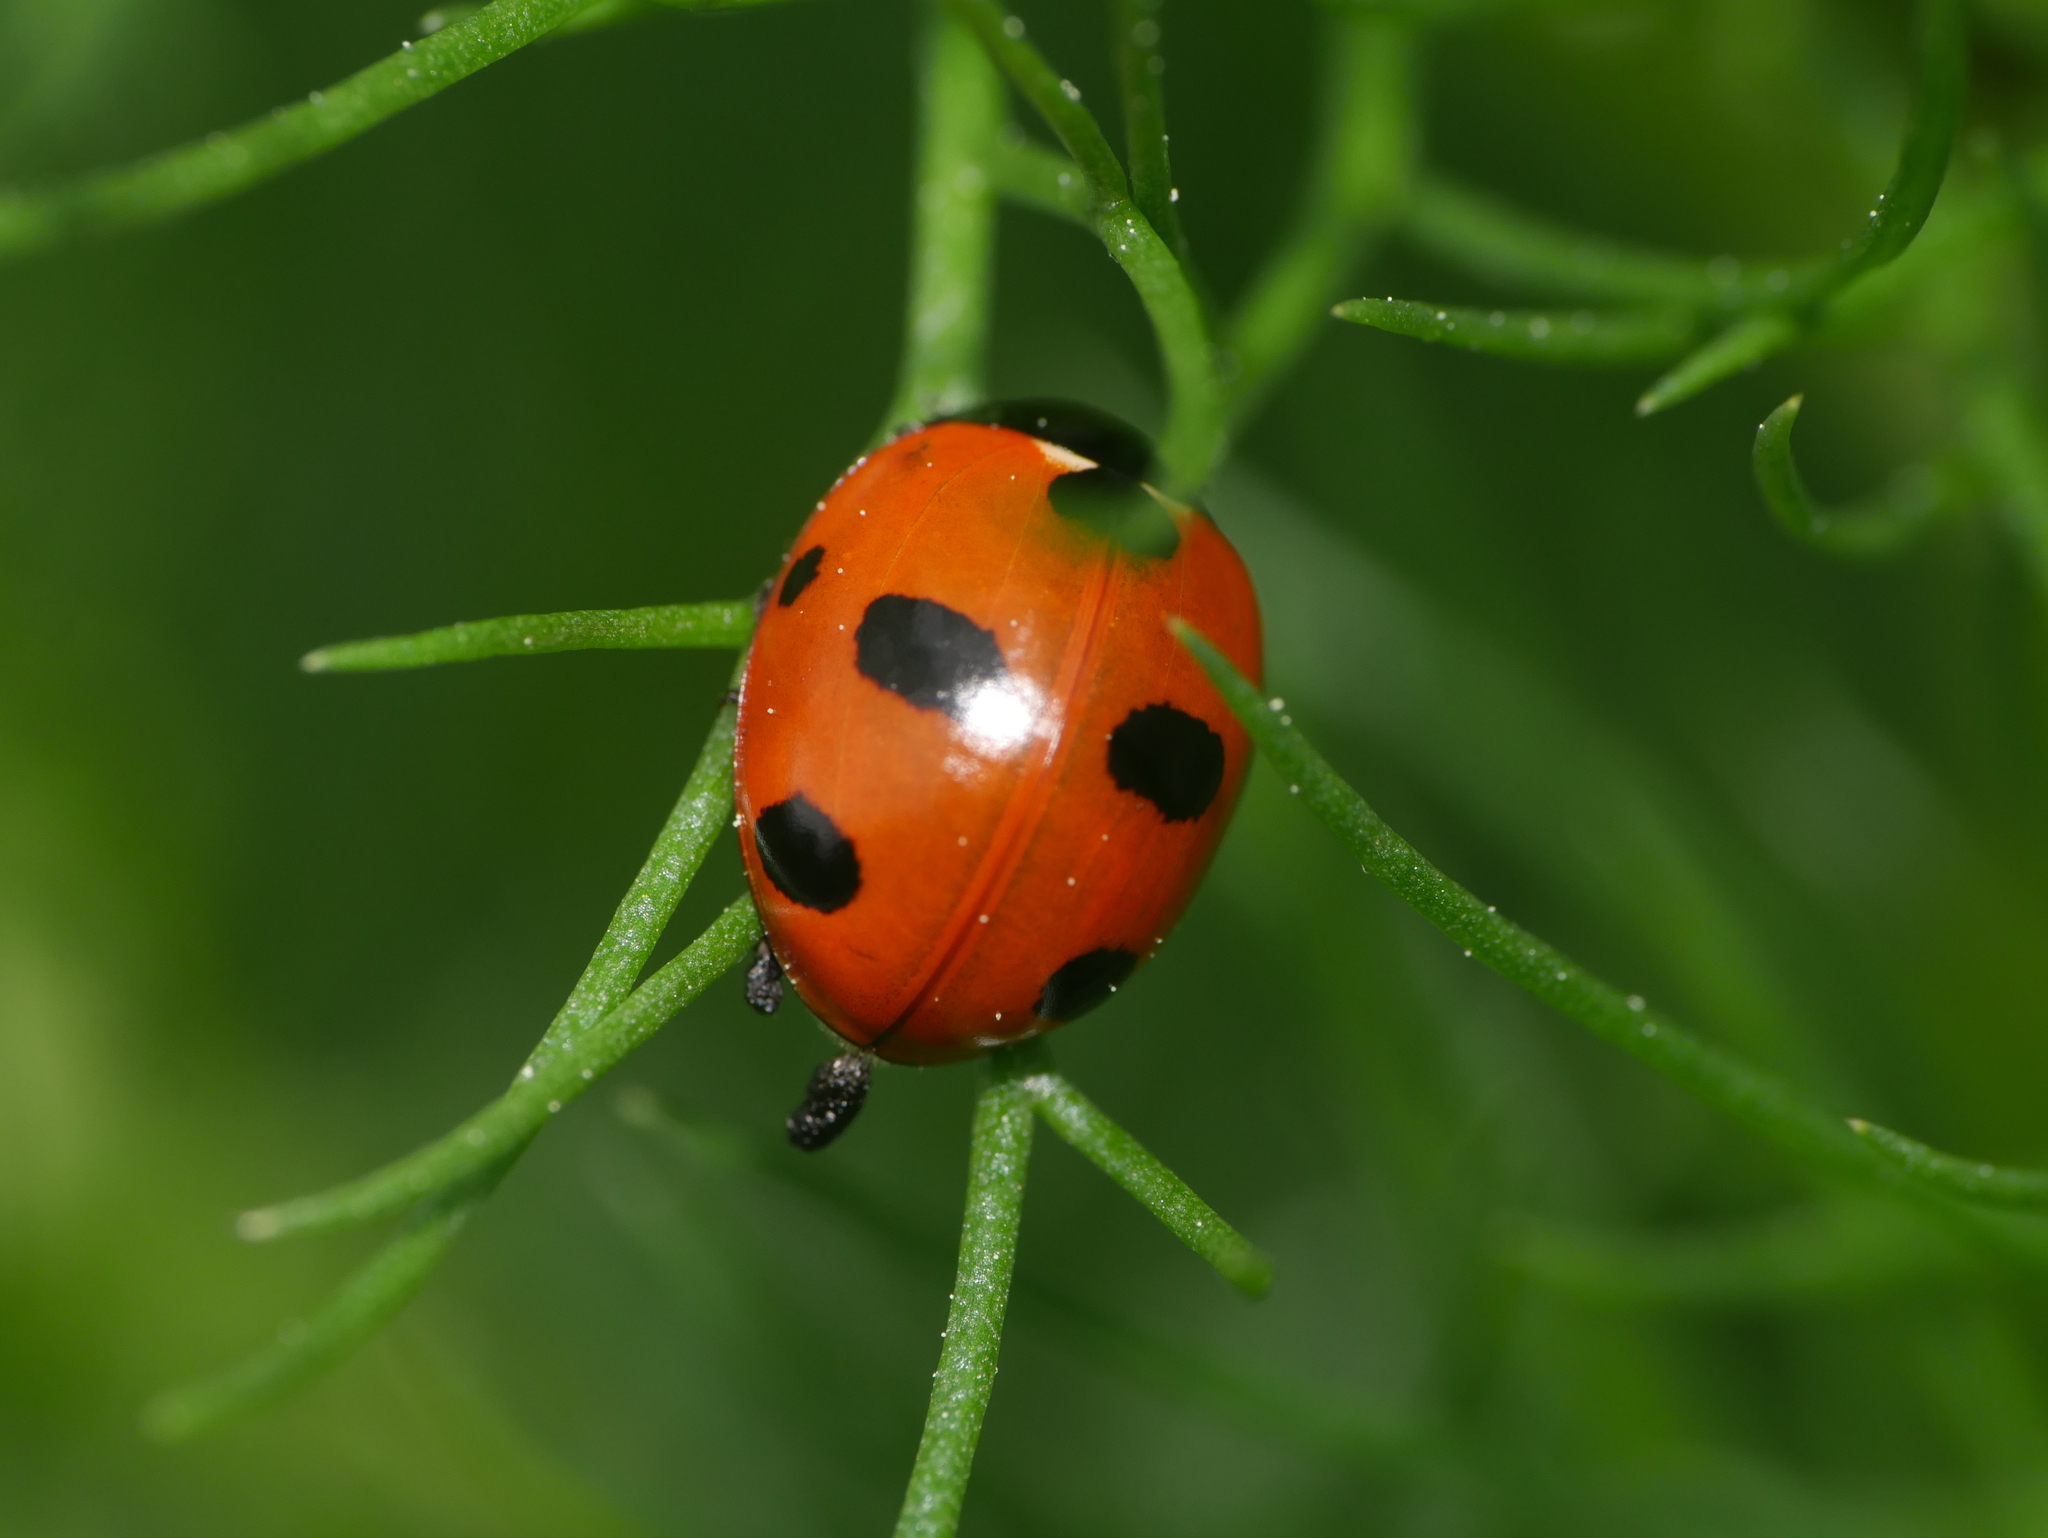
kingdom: Animalia
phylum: Arthropoda
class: Insecta
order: Coleoptera
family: Coccinellidae
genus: Coccinella
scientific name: Coccinella septempunctata
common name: Sevenspotted lady beetle
